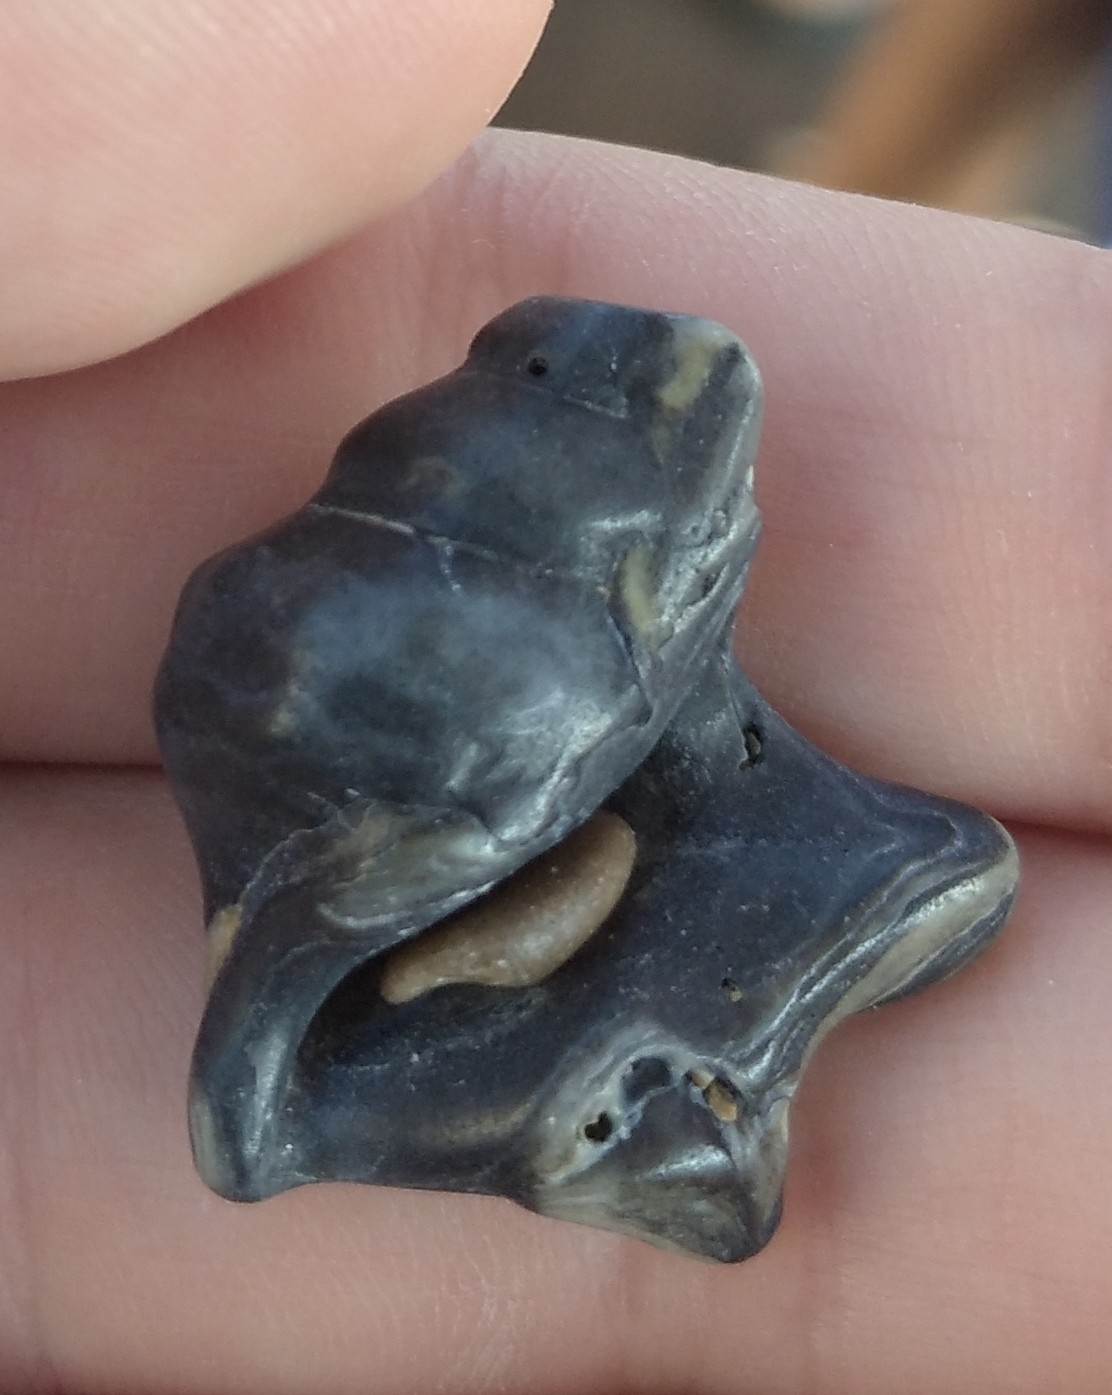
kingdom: Animalia
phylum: Mollusca
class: Gastropoda
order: Littorinimorpha
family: Aporrhaidae
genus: Aporrhais
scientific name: Aporrhais pespelecani
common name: Common pelican’s foot
